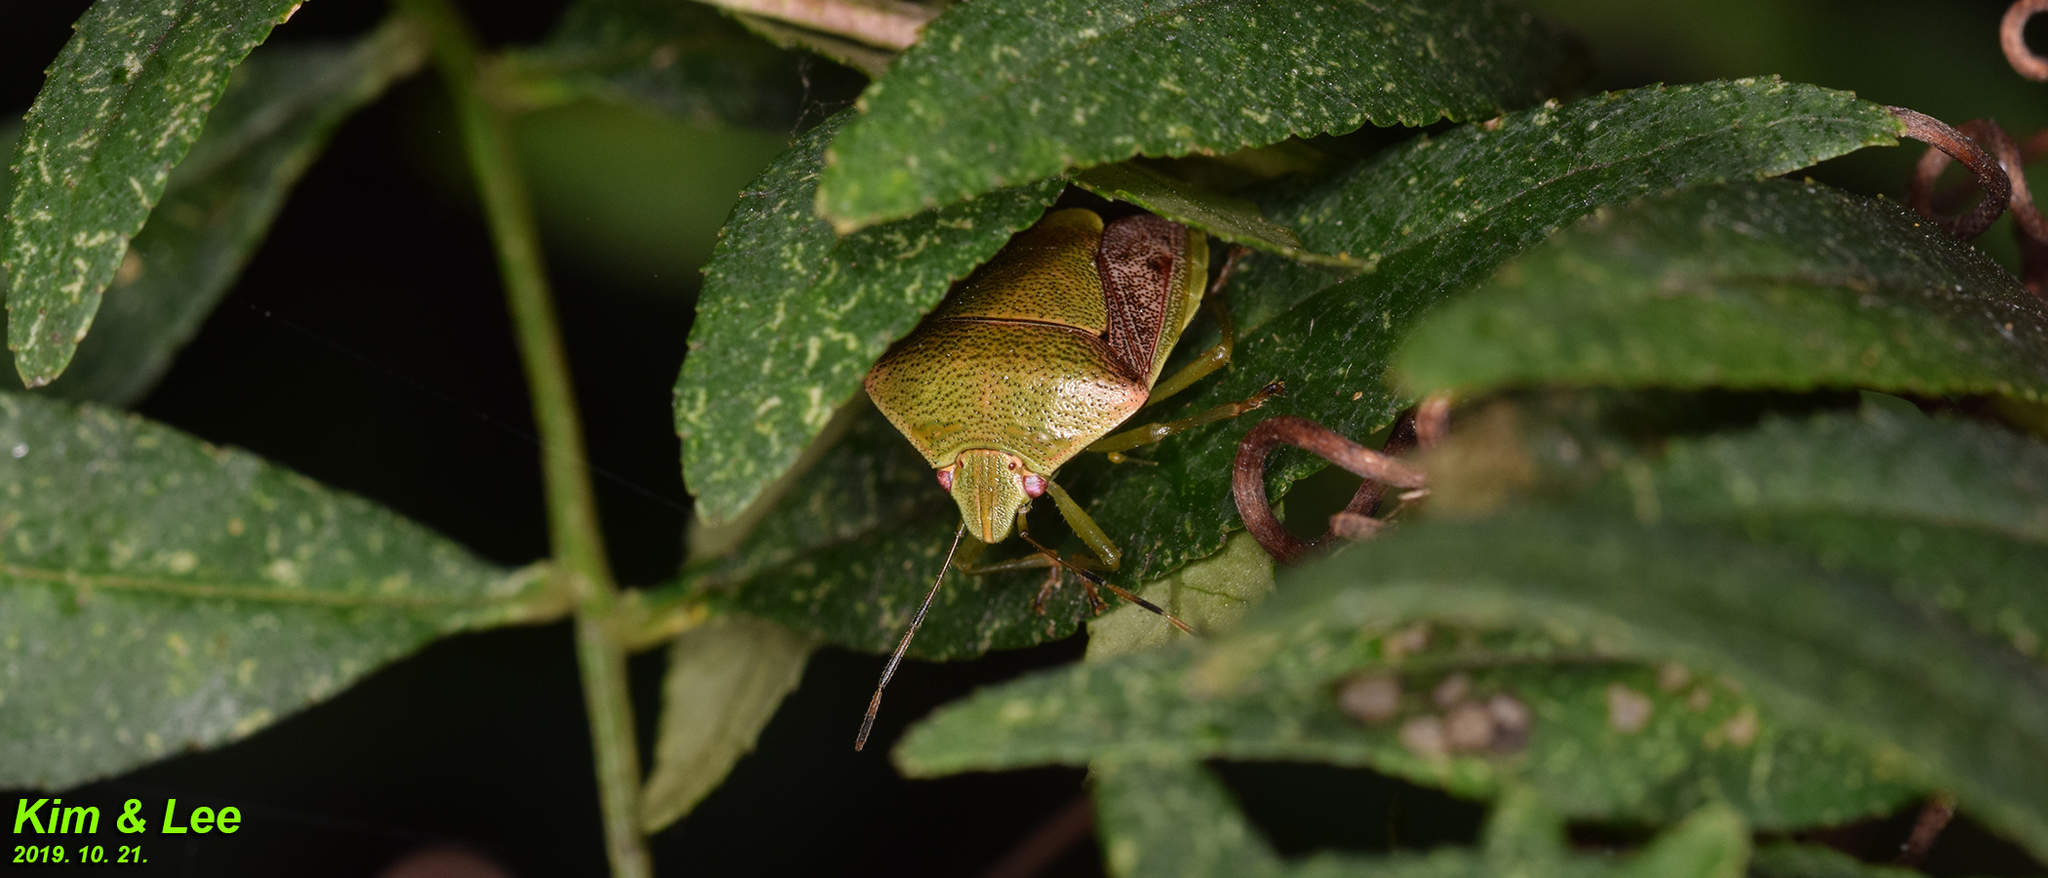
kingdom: Animalia
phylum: Arthropoda
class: Insecta
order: Hemiptera
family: Pentatomidae
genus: Plautia
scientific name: Plautia stali
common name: Stink bug
